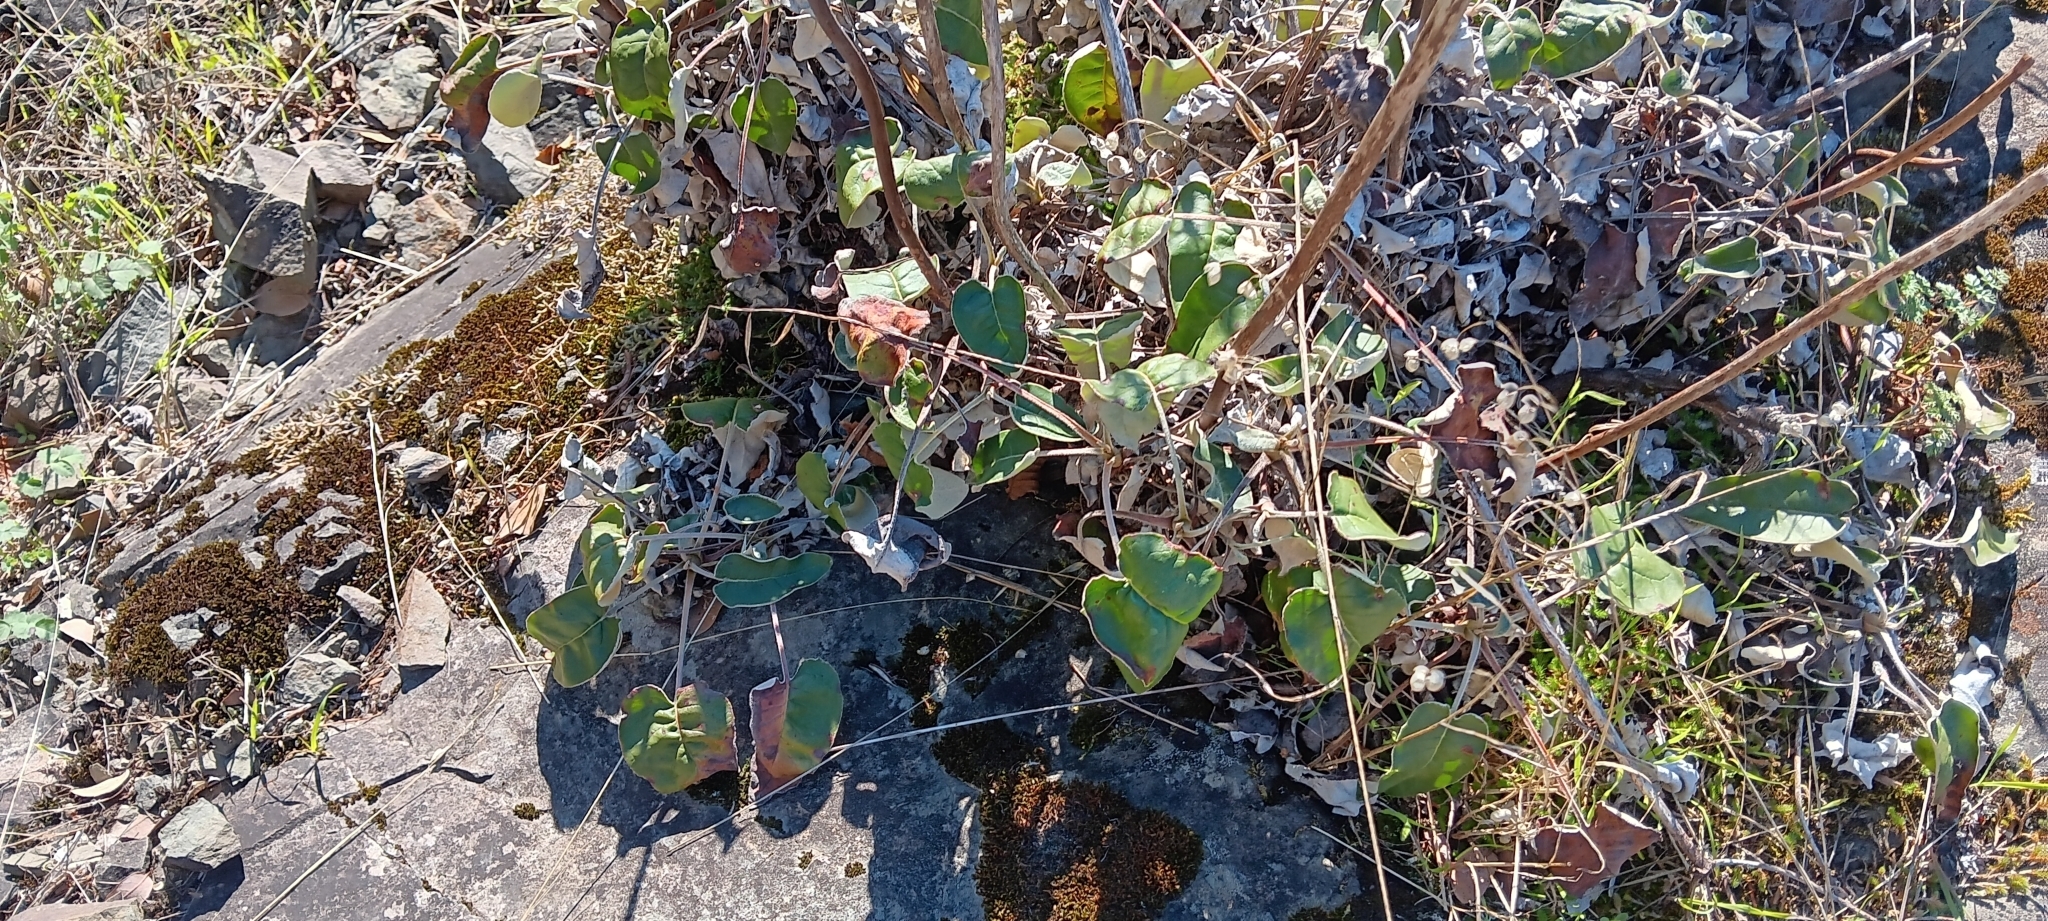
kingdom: Plantae
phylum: Tracheophyta
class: Magnoliopsida
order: Caryophyllales
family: Polygonaceae
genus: Eriogonum
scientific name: Eriogonum compositum
